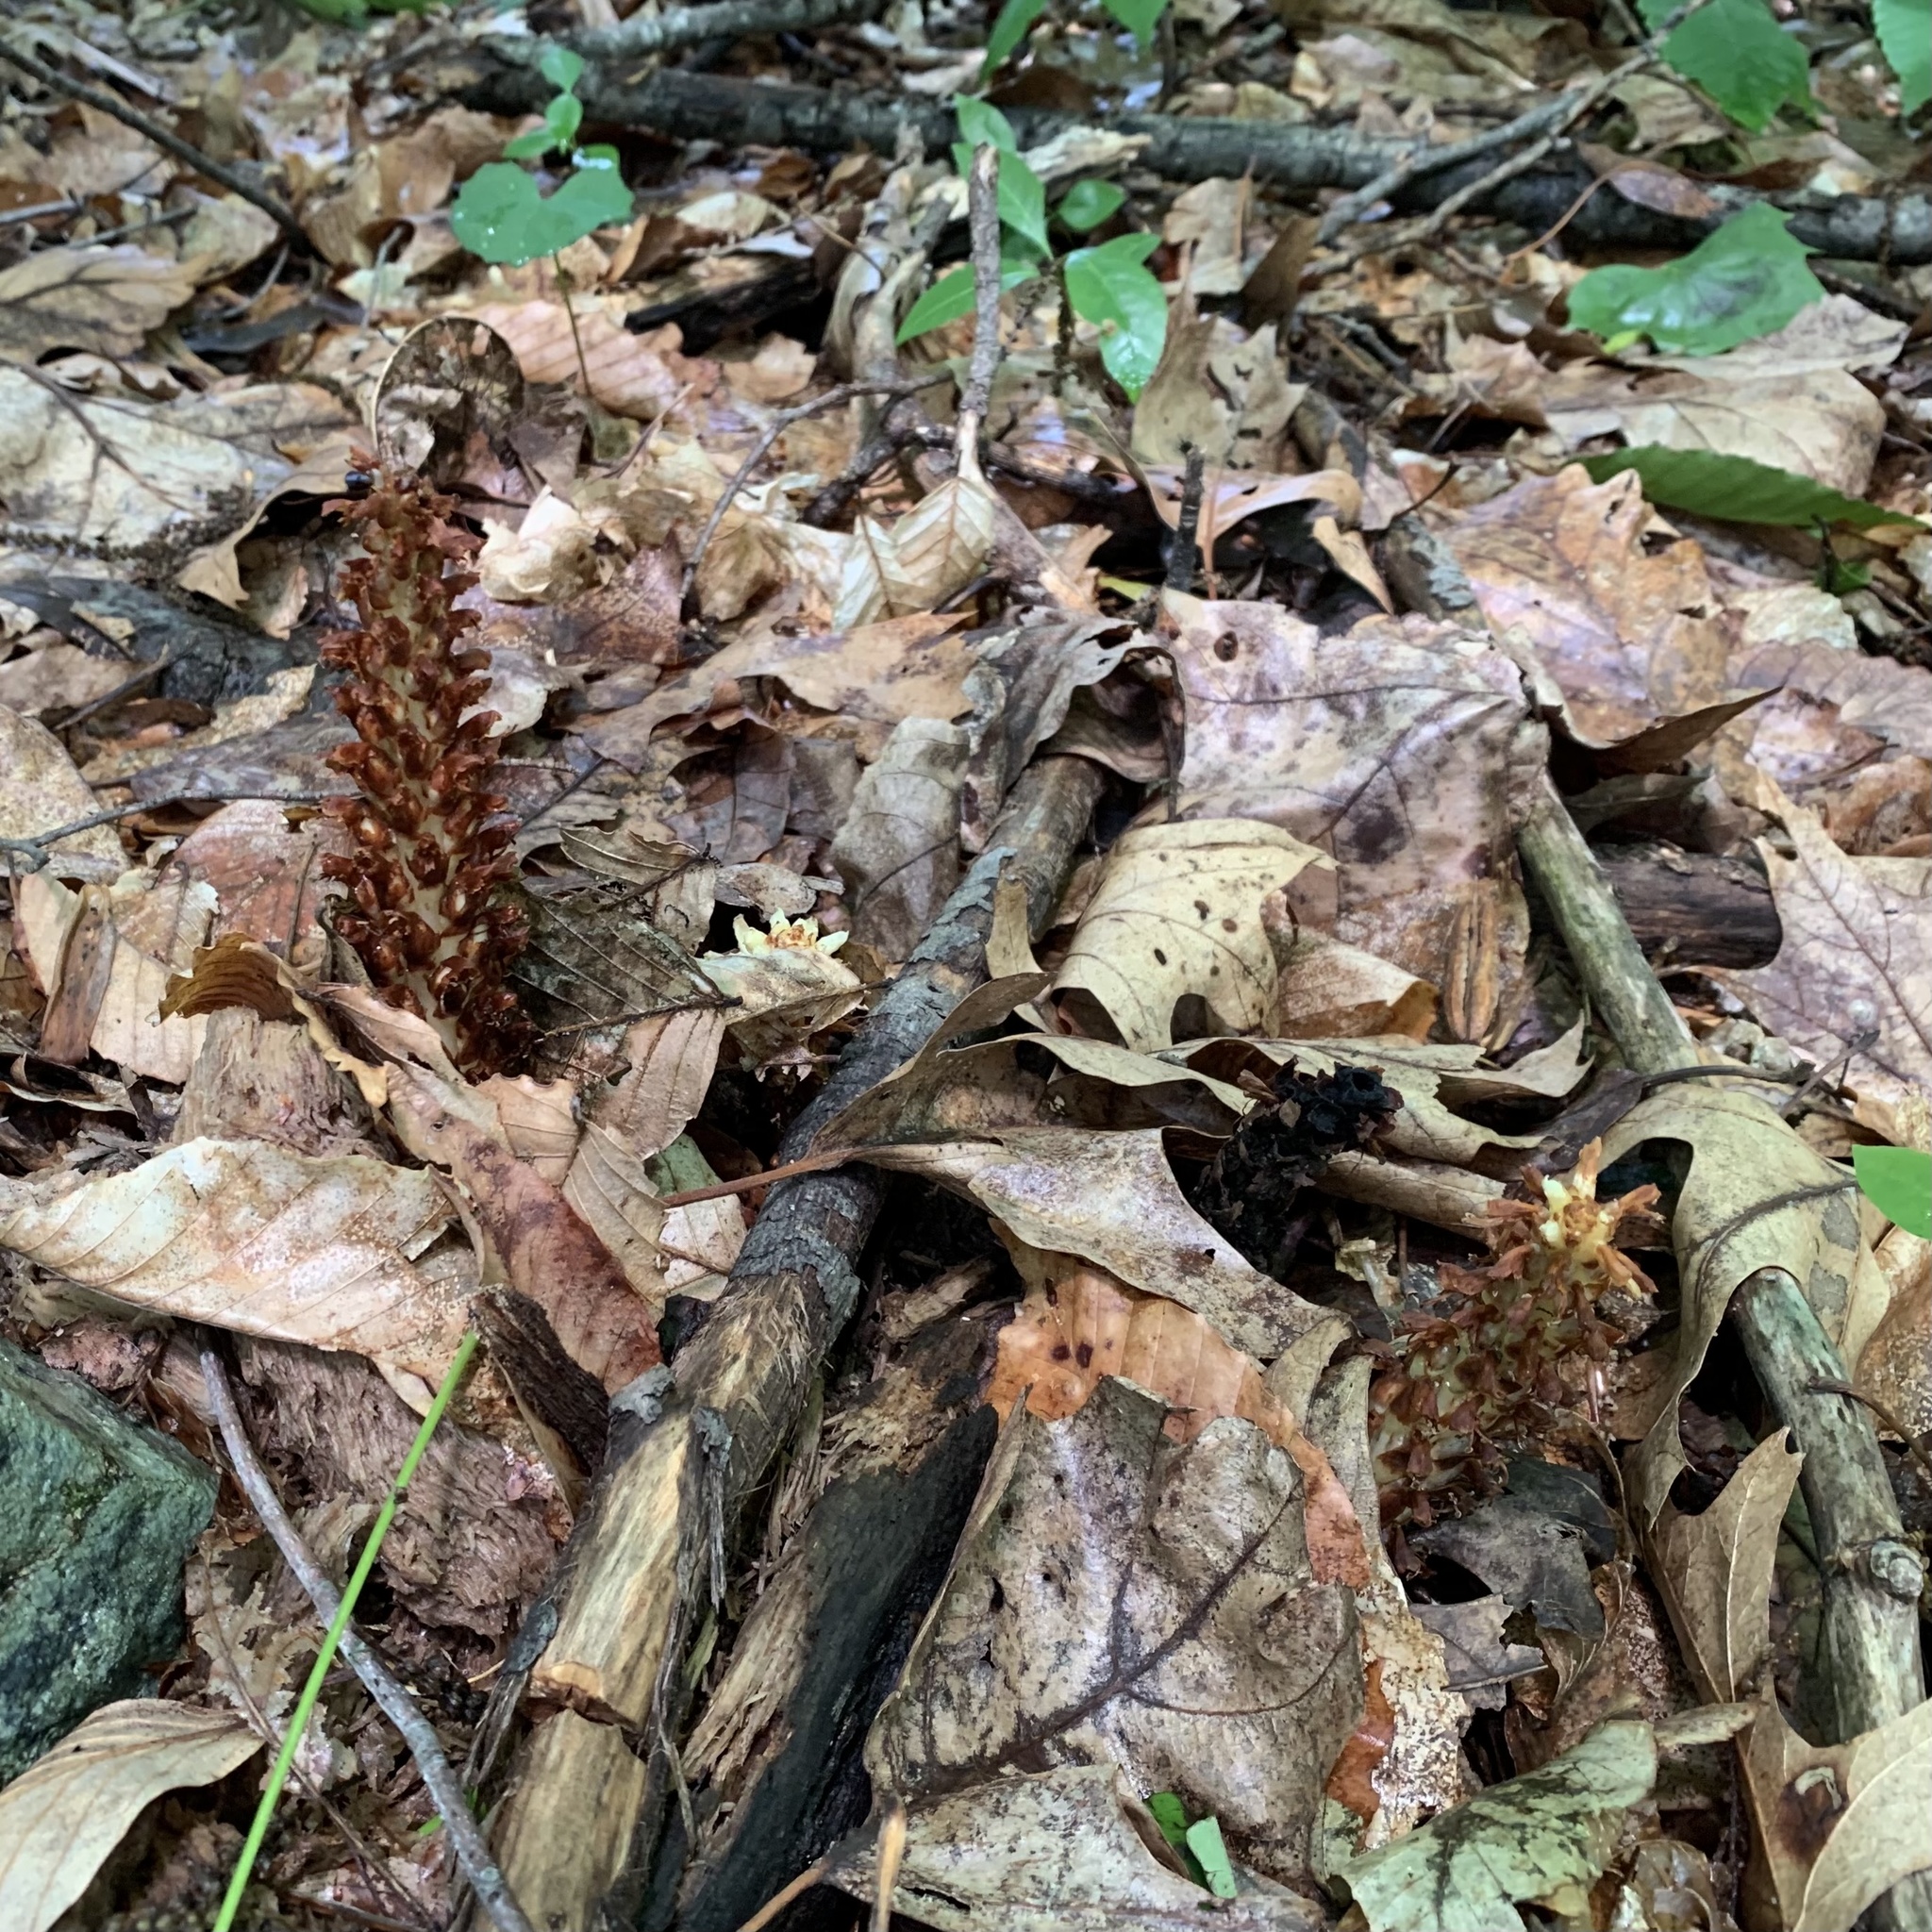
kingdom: Plantae
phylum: Tracheophyta
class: Magnoliopsida
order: Lamiales
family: Orobanchaceae
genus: Conopholis
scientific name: Conopholis americana
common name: American cancer-root
